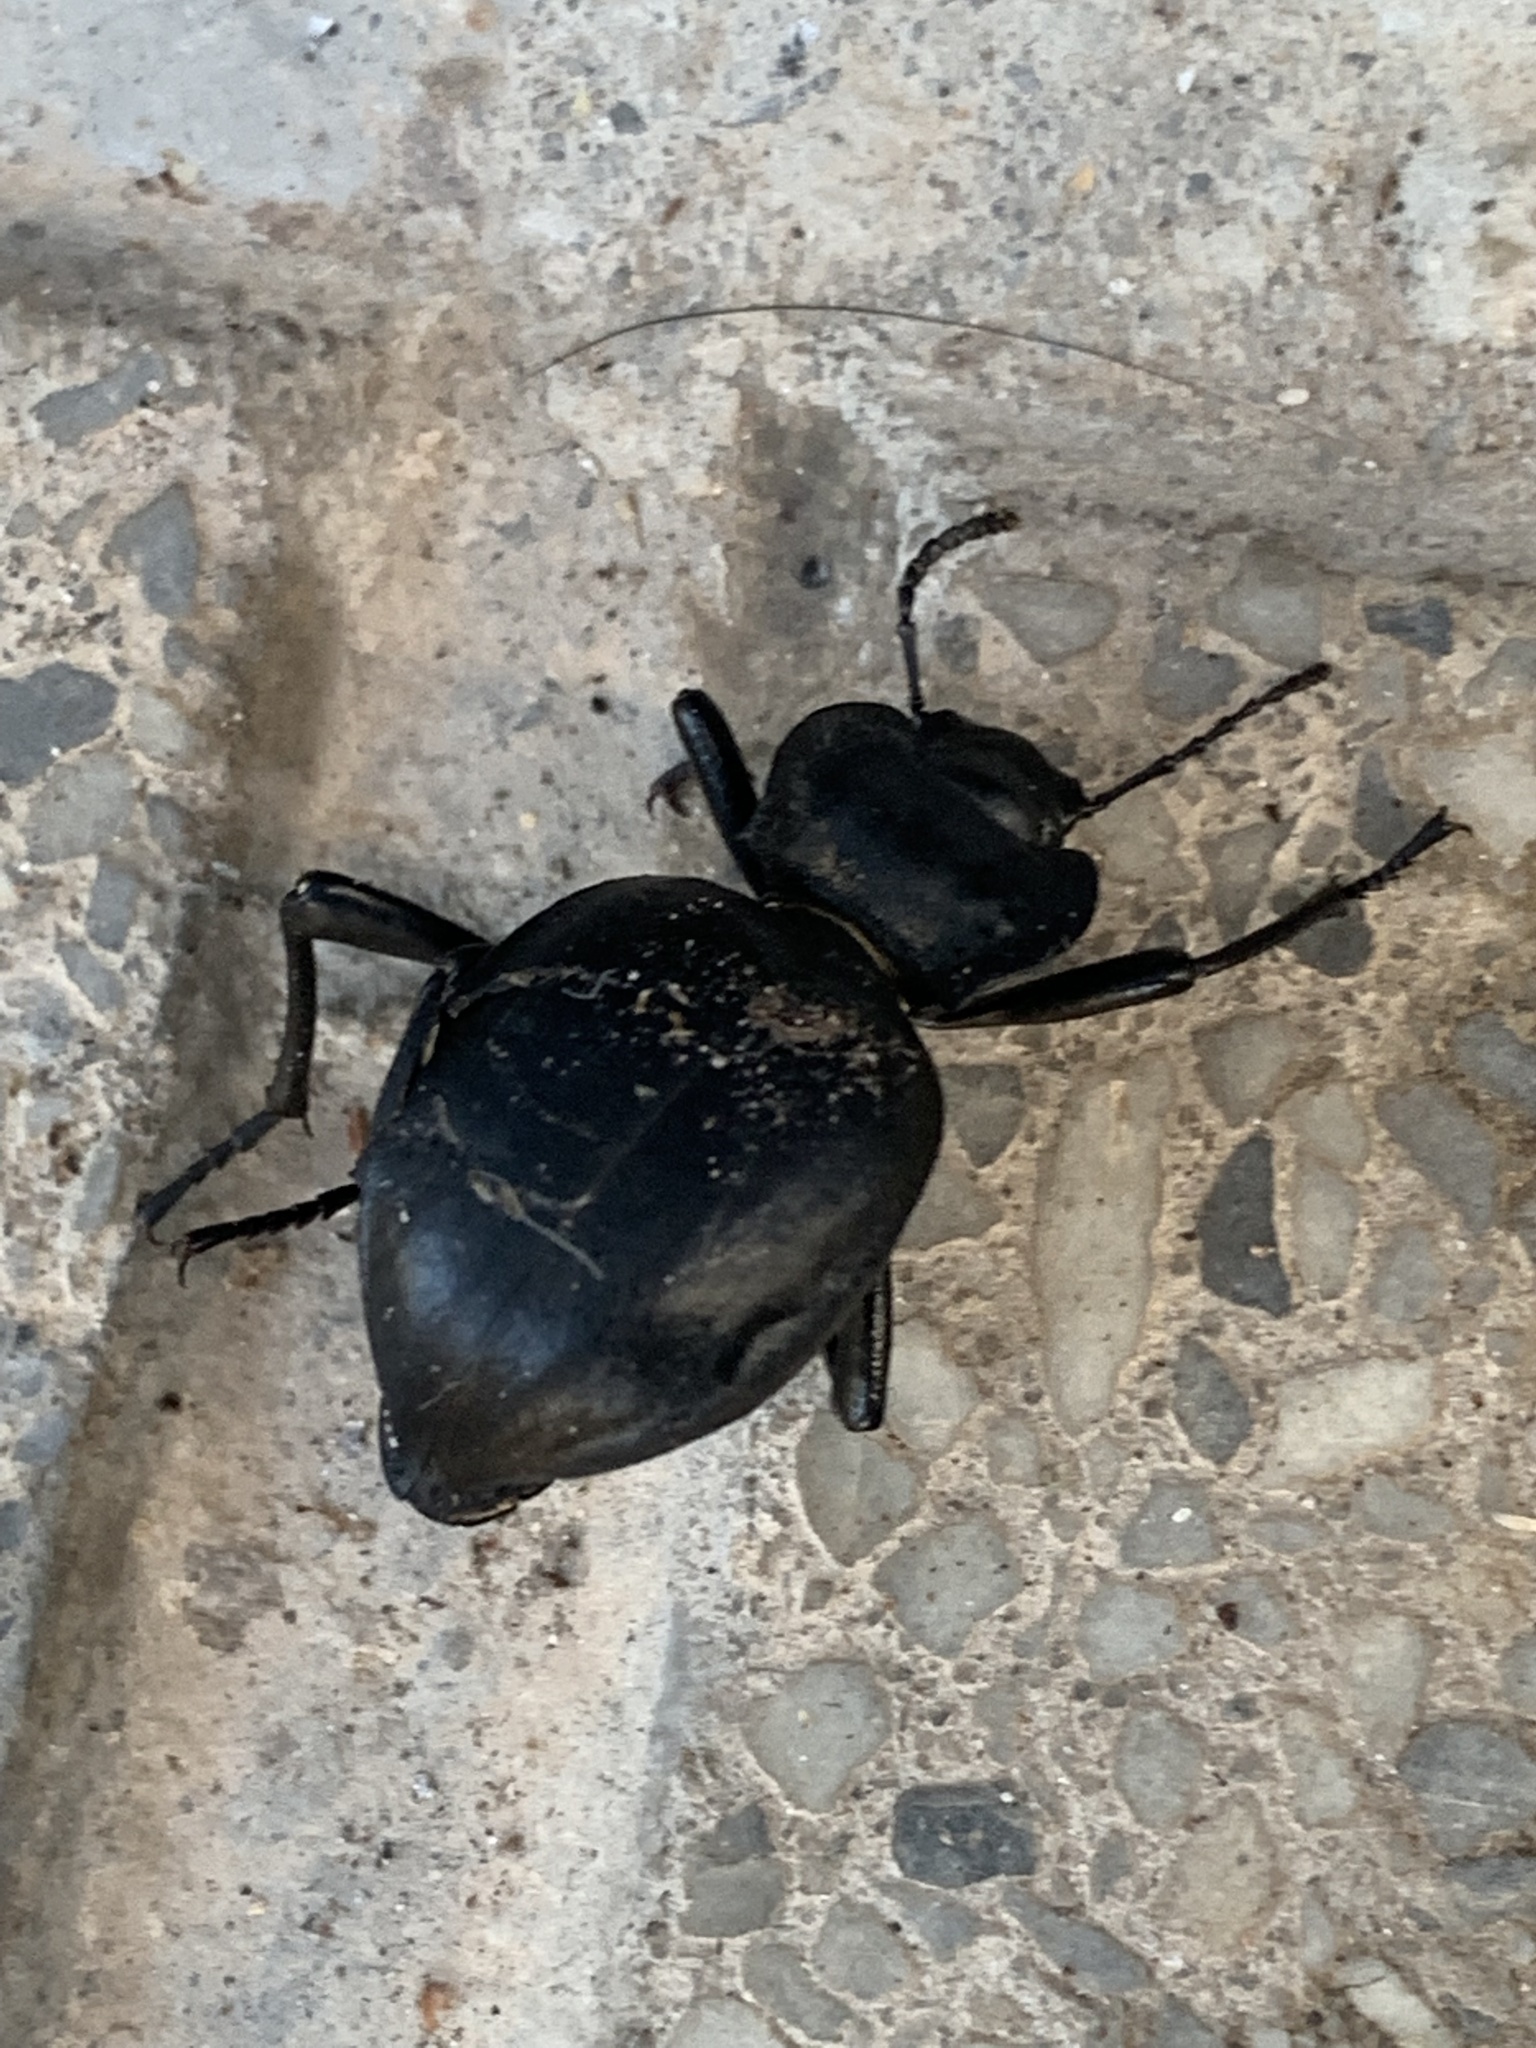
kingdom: Animalia
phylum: Arthropoda
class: Insecta
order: Coleoptera
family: Tenebrionidae
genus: Akis
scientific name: Akis acuminata
